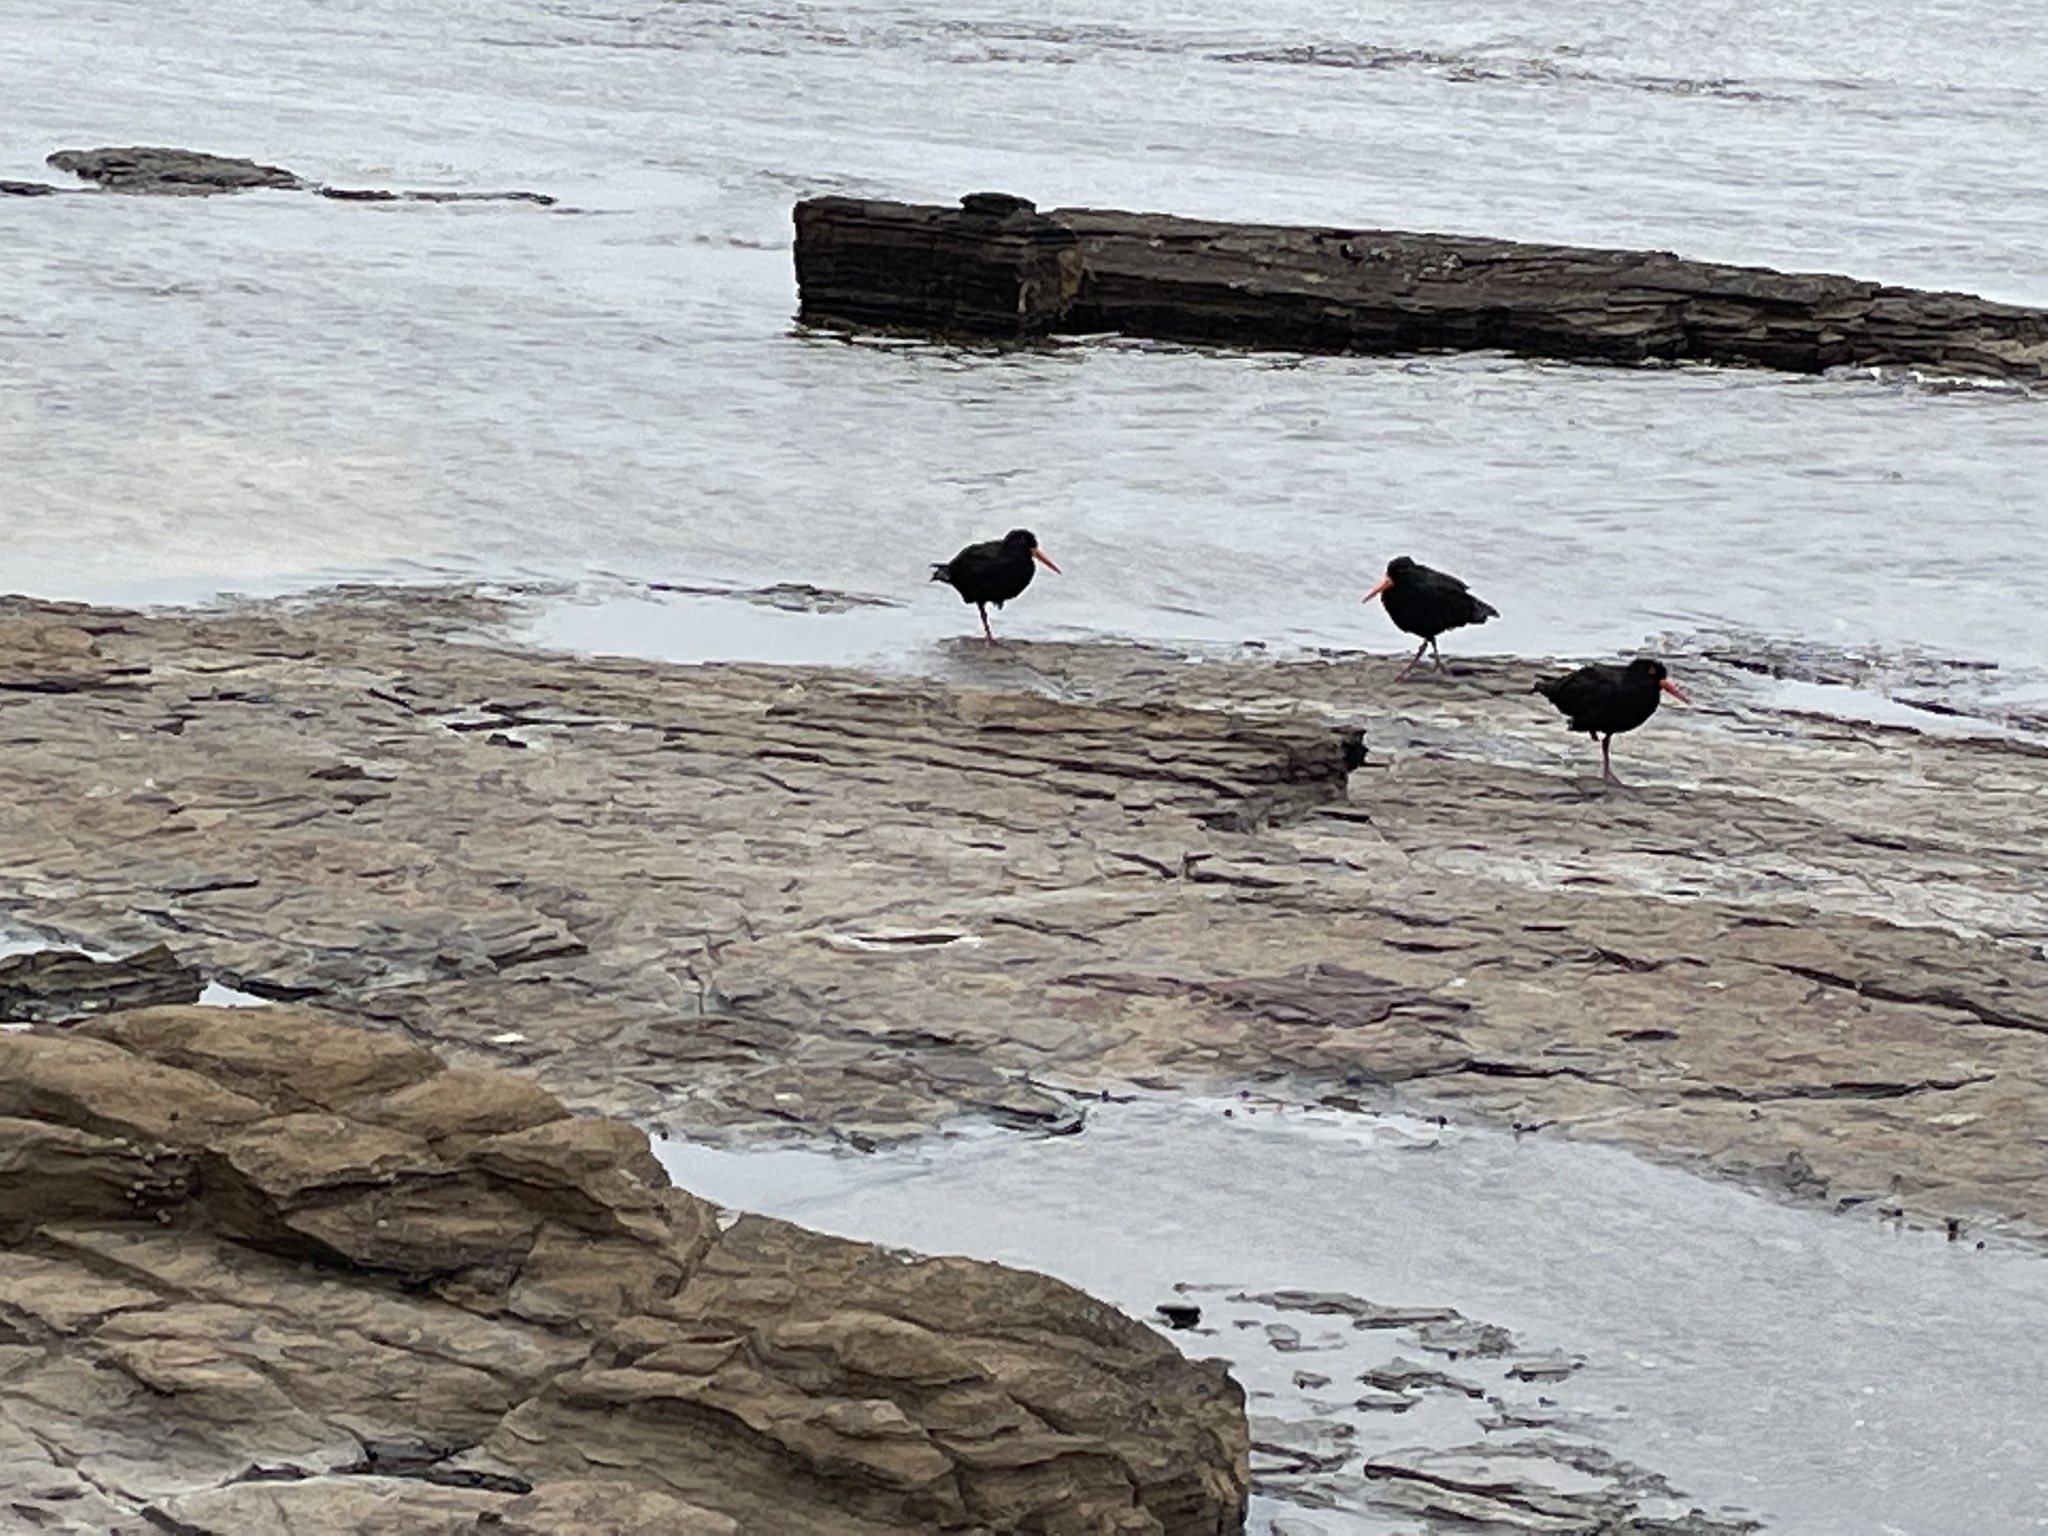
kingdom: Animalia
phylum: Chordata
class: Aves
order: Charadriiformes
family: Haematopodidae
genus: Haematopus
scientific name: Haematopus fuliginosus
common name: Sooty oystercatcher
